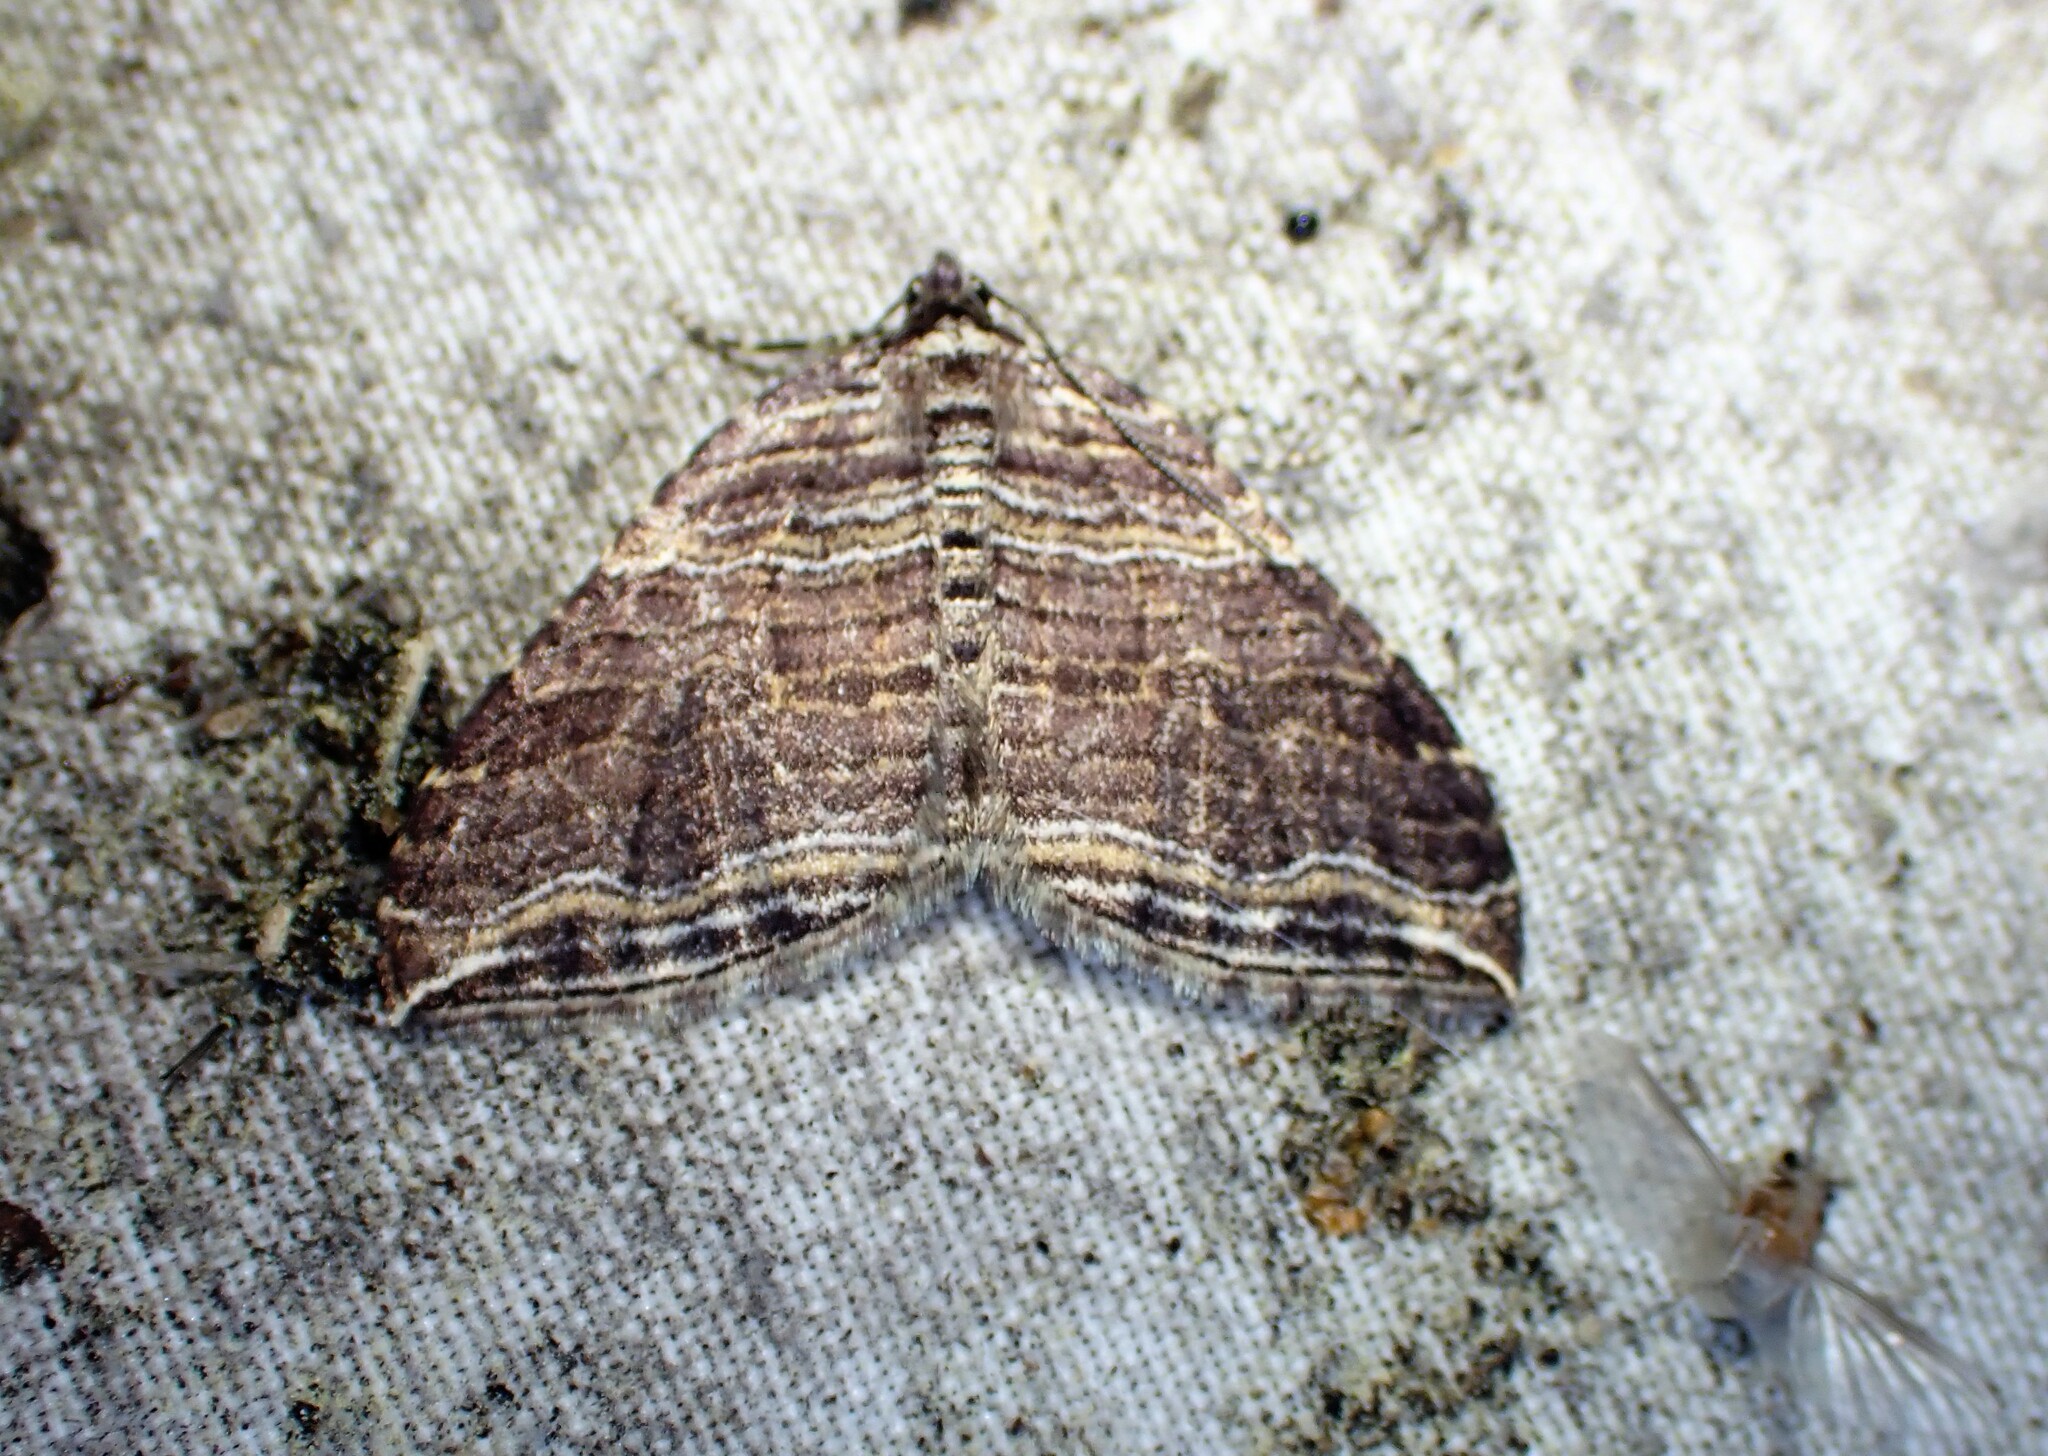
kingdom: Animalia
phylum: Arthropoda
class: Insecta
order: Lepidoptera
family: Geometridae
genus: Anticlea
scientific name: Anticlea multiferata
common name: Many-lined carpet
